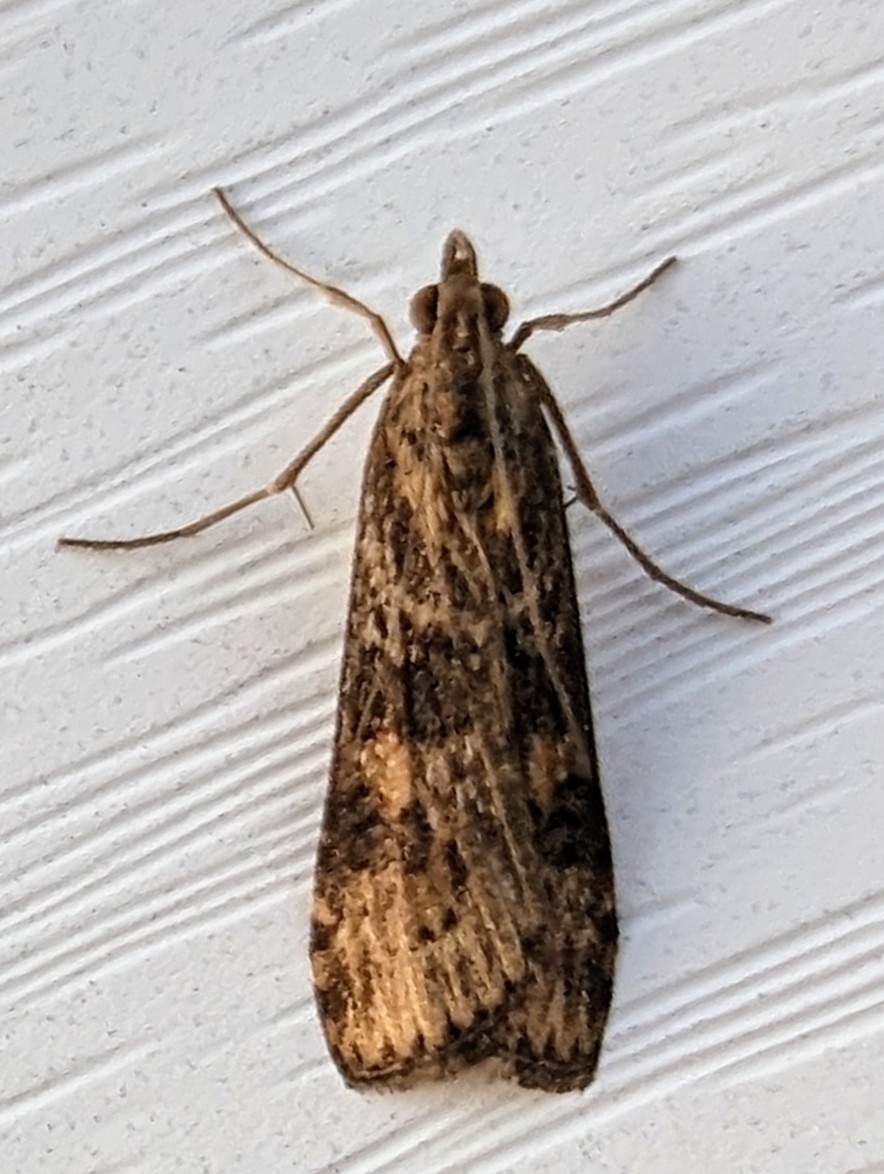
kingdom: Animalia
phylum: Arthropoda
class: Insecta
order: Lepidoptera
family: Crambidae
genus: Nomophila
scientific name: Nomophila nearctica
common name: American rush veneer
